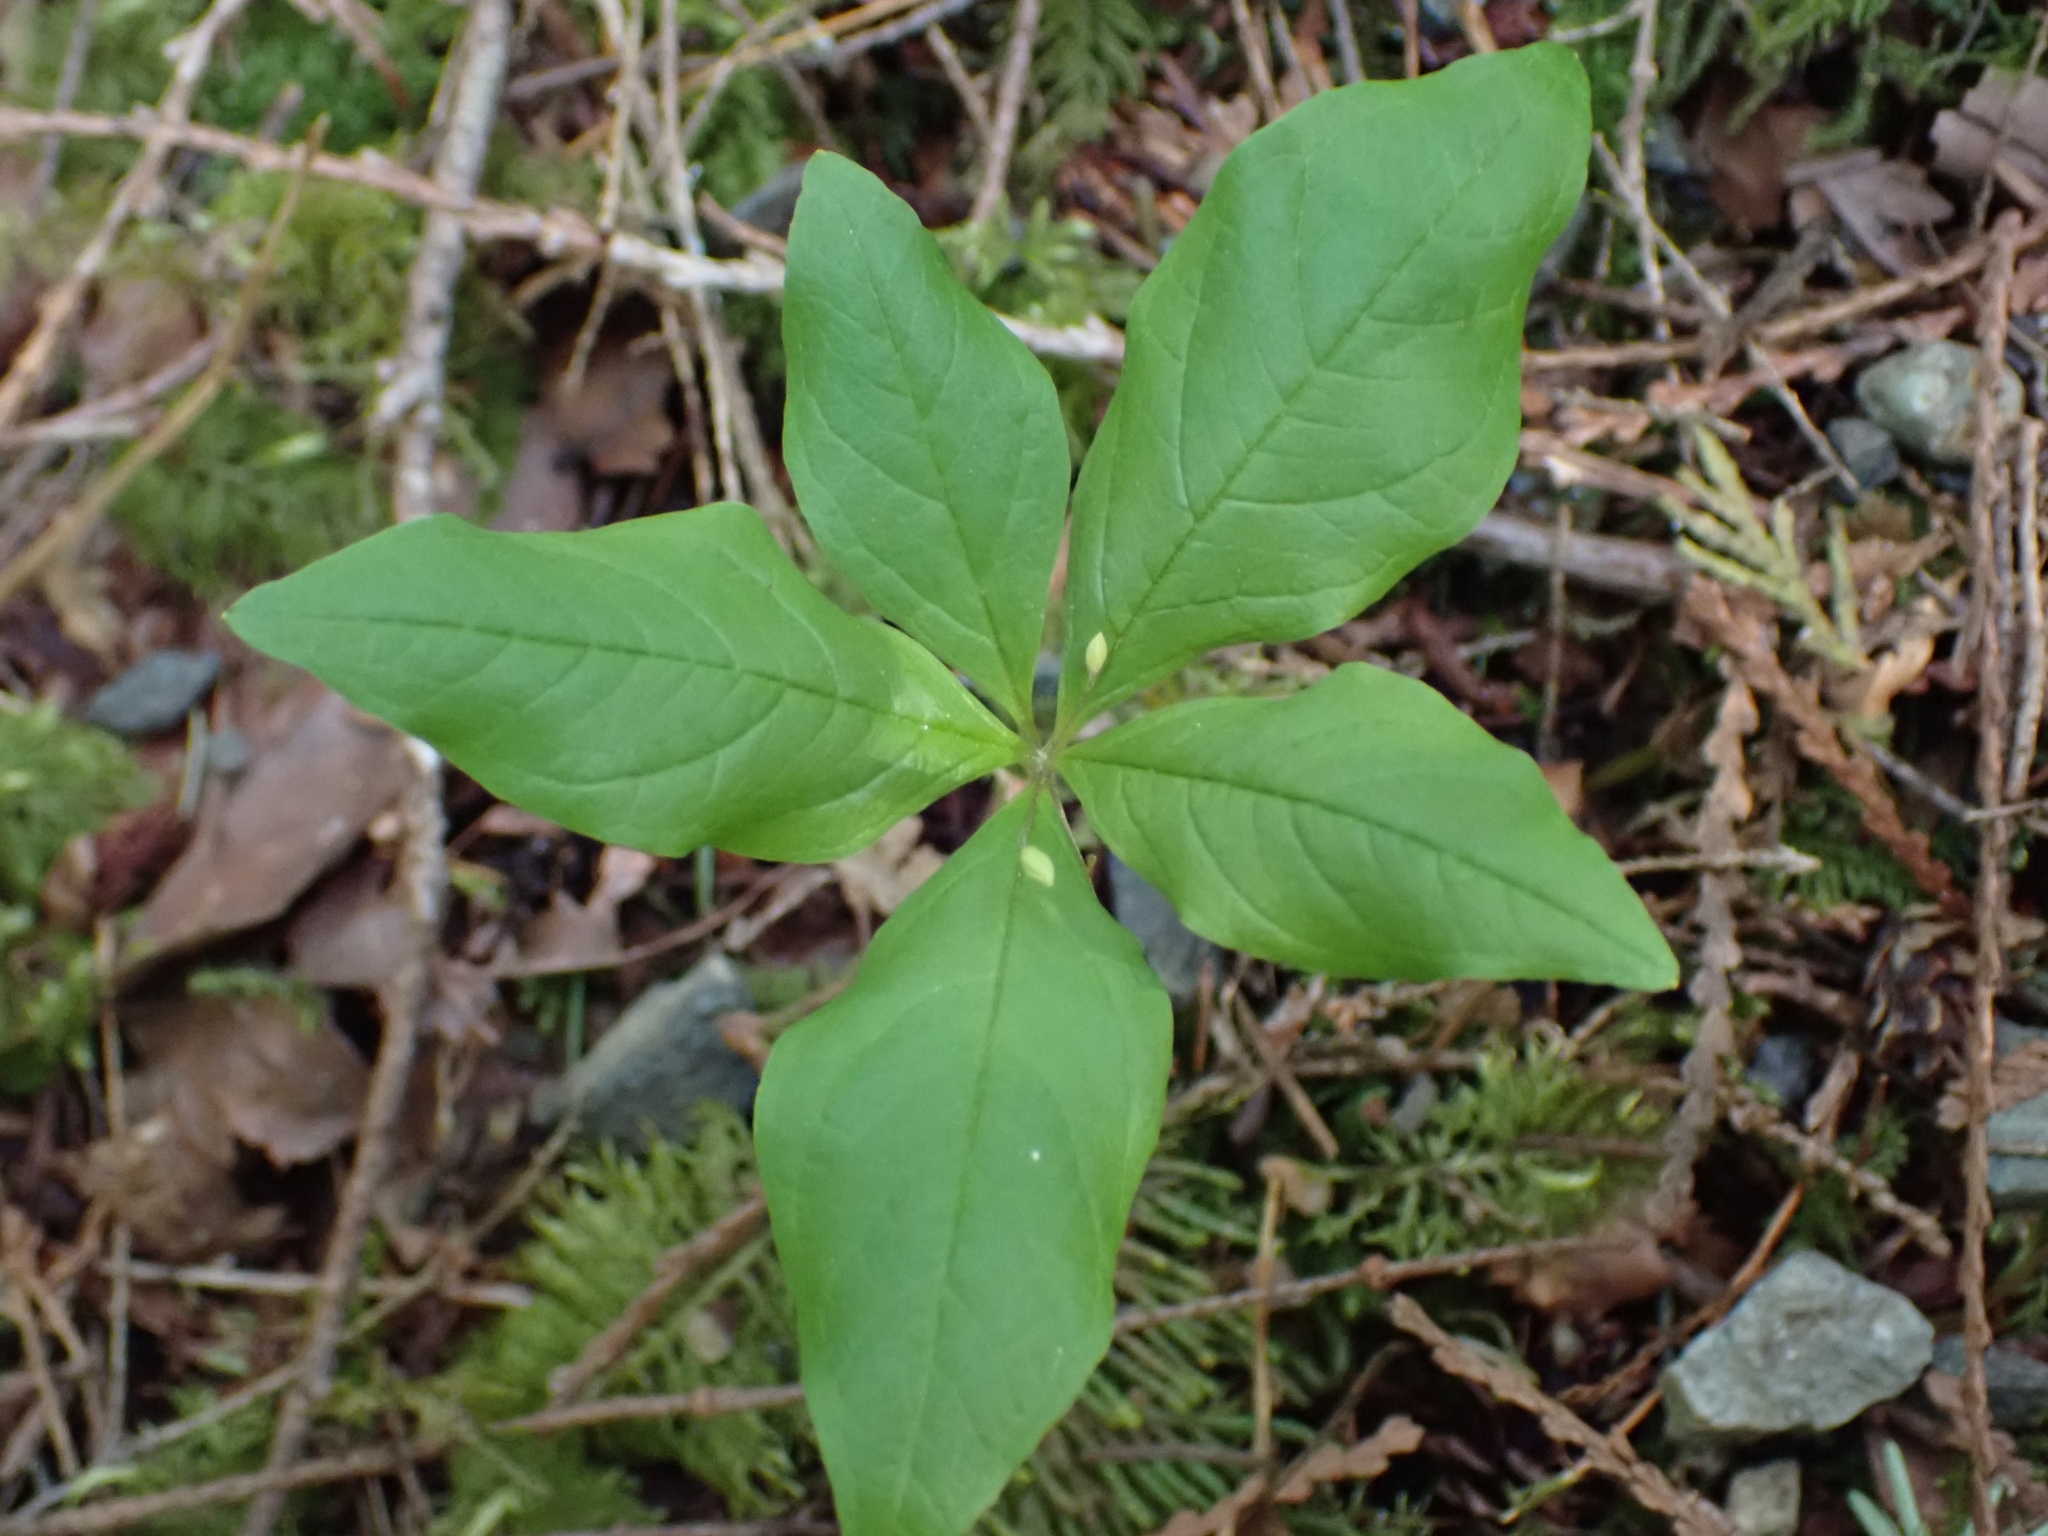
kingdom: Plantae
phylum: Tracheophyta
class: Magnoliopsida
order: Ericales
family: Primulaceae
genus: Lysimachia
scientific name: Lysimachia latifolia
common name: Pacific starflower
